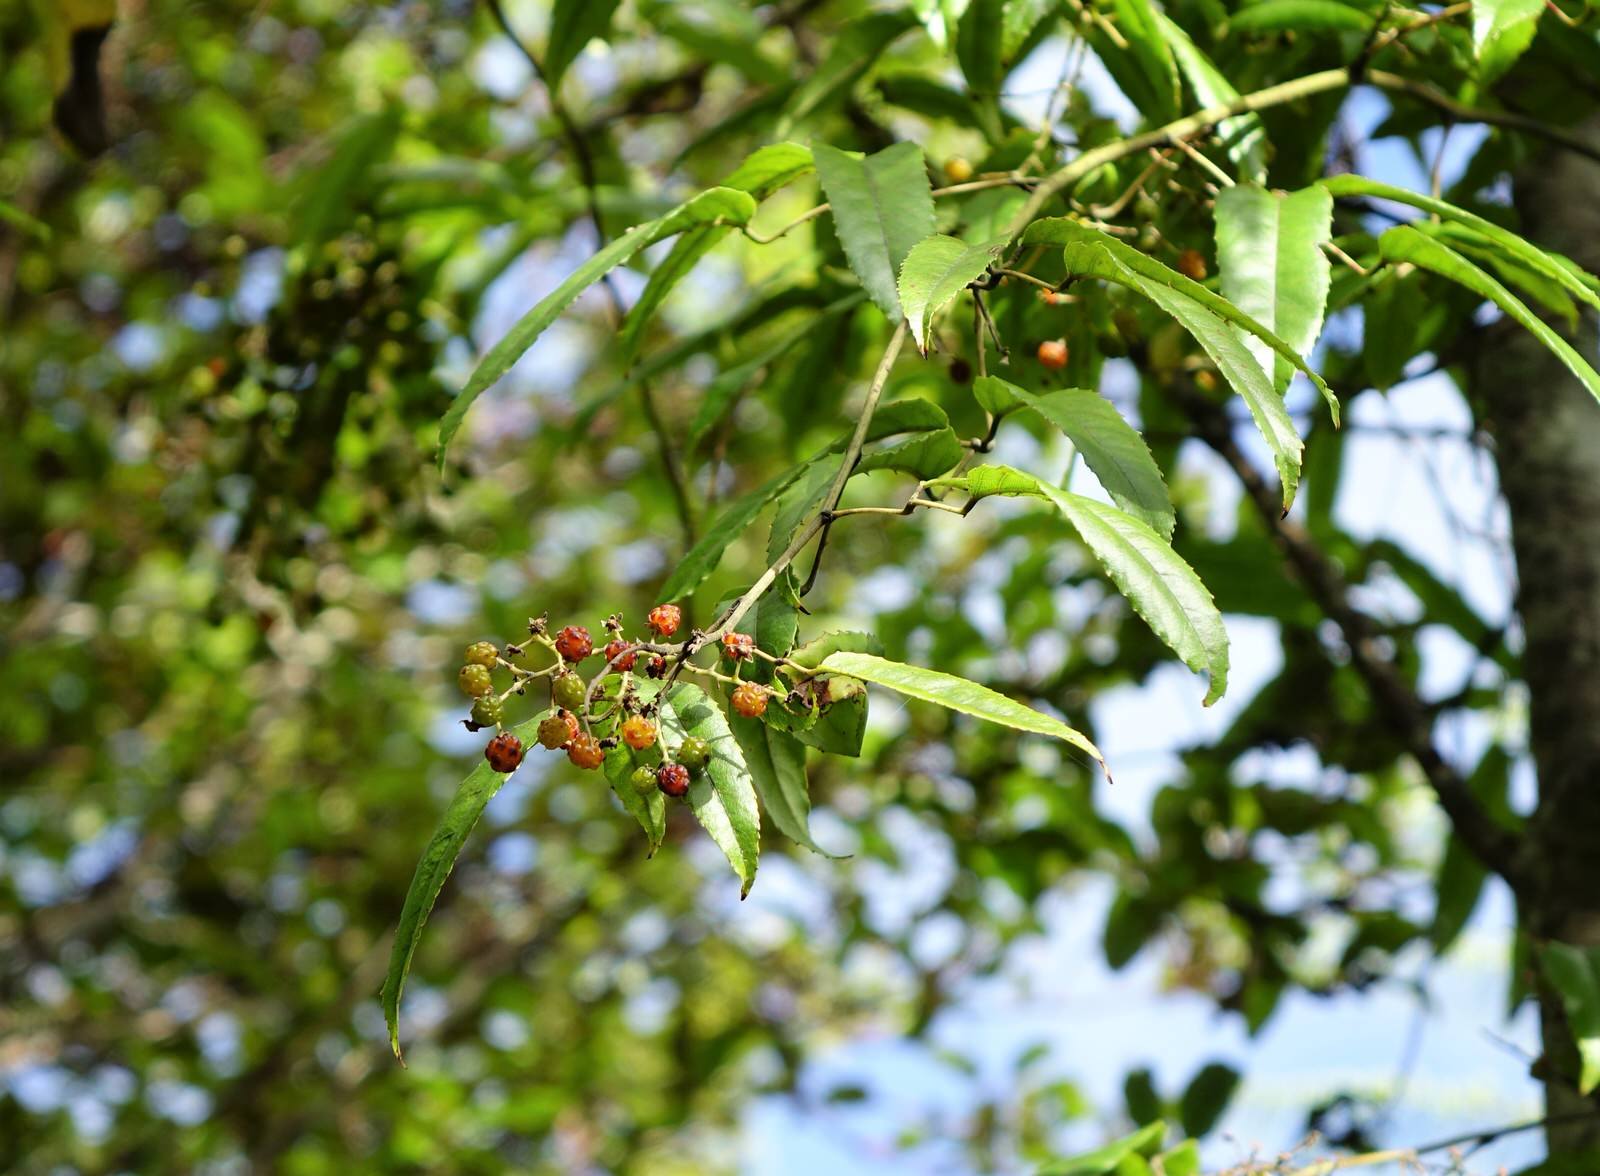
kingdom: Plantae
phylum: Tracheophyta
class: Magnoliopsida
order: Rosales
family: Rosaceae
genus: Rubus
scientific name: Rubus cissoides
